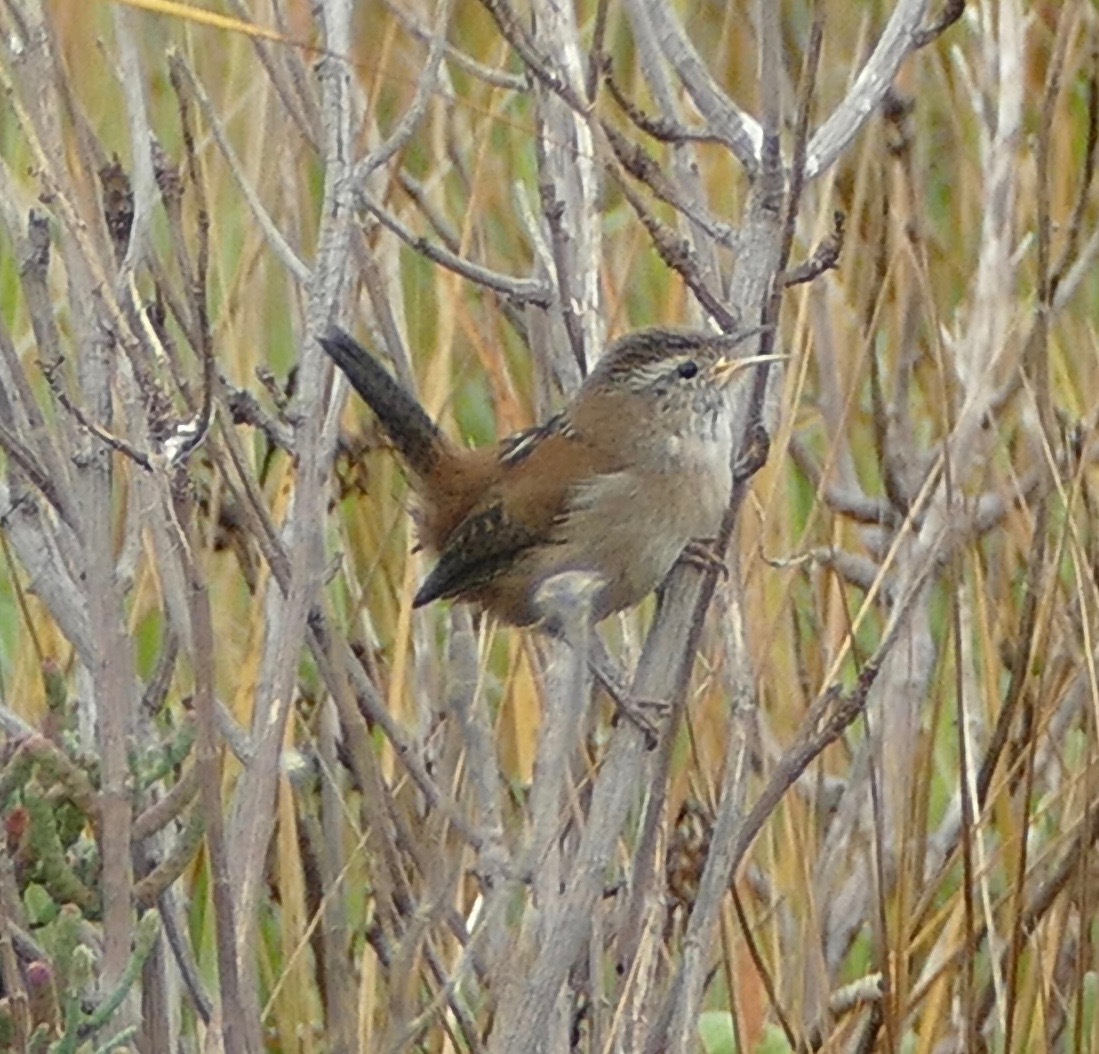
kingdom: Animalia
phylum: Chordata
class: Aves
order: Passeriformes
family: Troglodytidae
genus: Cistothorus
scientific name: Cistothorus palustris
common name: Marsh wren
